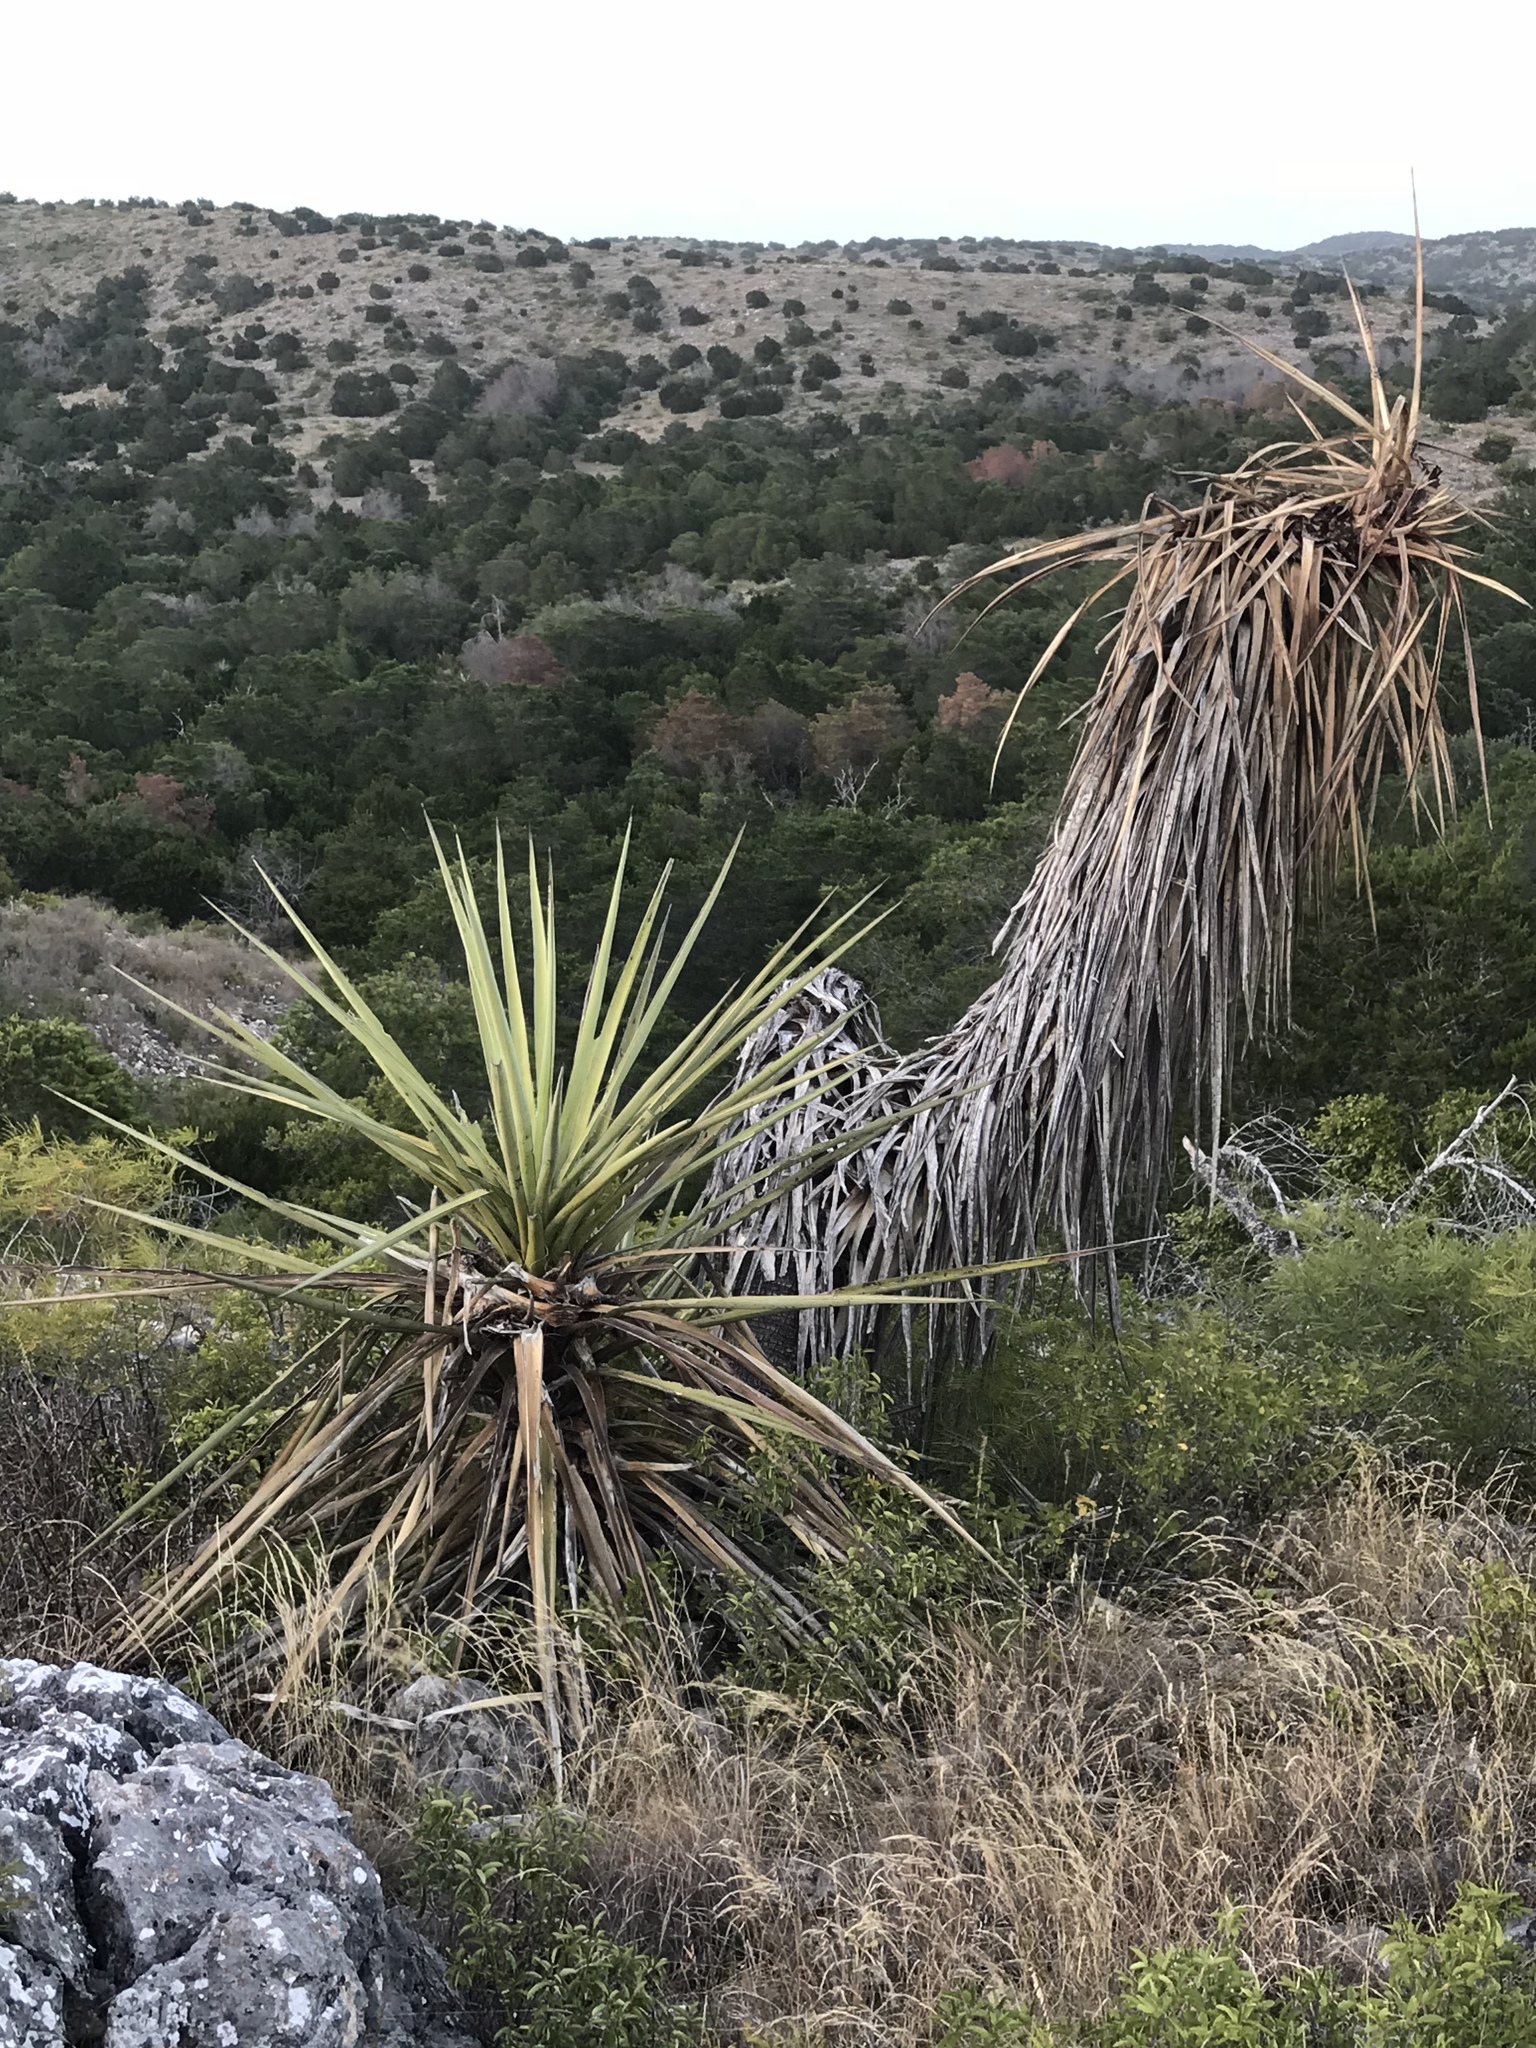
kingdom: Plantae
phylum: Tracheophyta
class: Liliopsida
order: Asparagales
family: Asparagaceae
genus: Yucca
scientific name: Yucca treculiana
